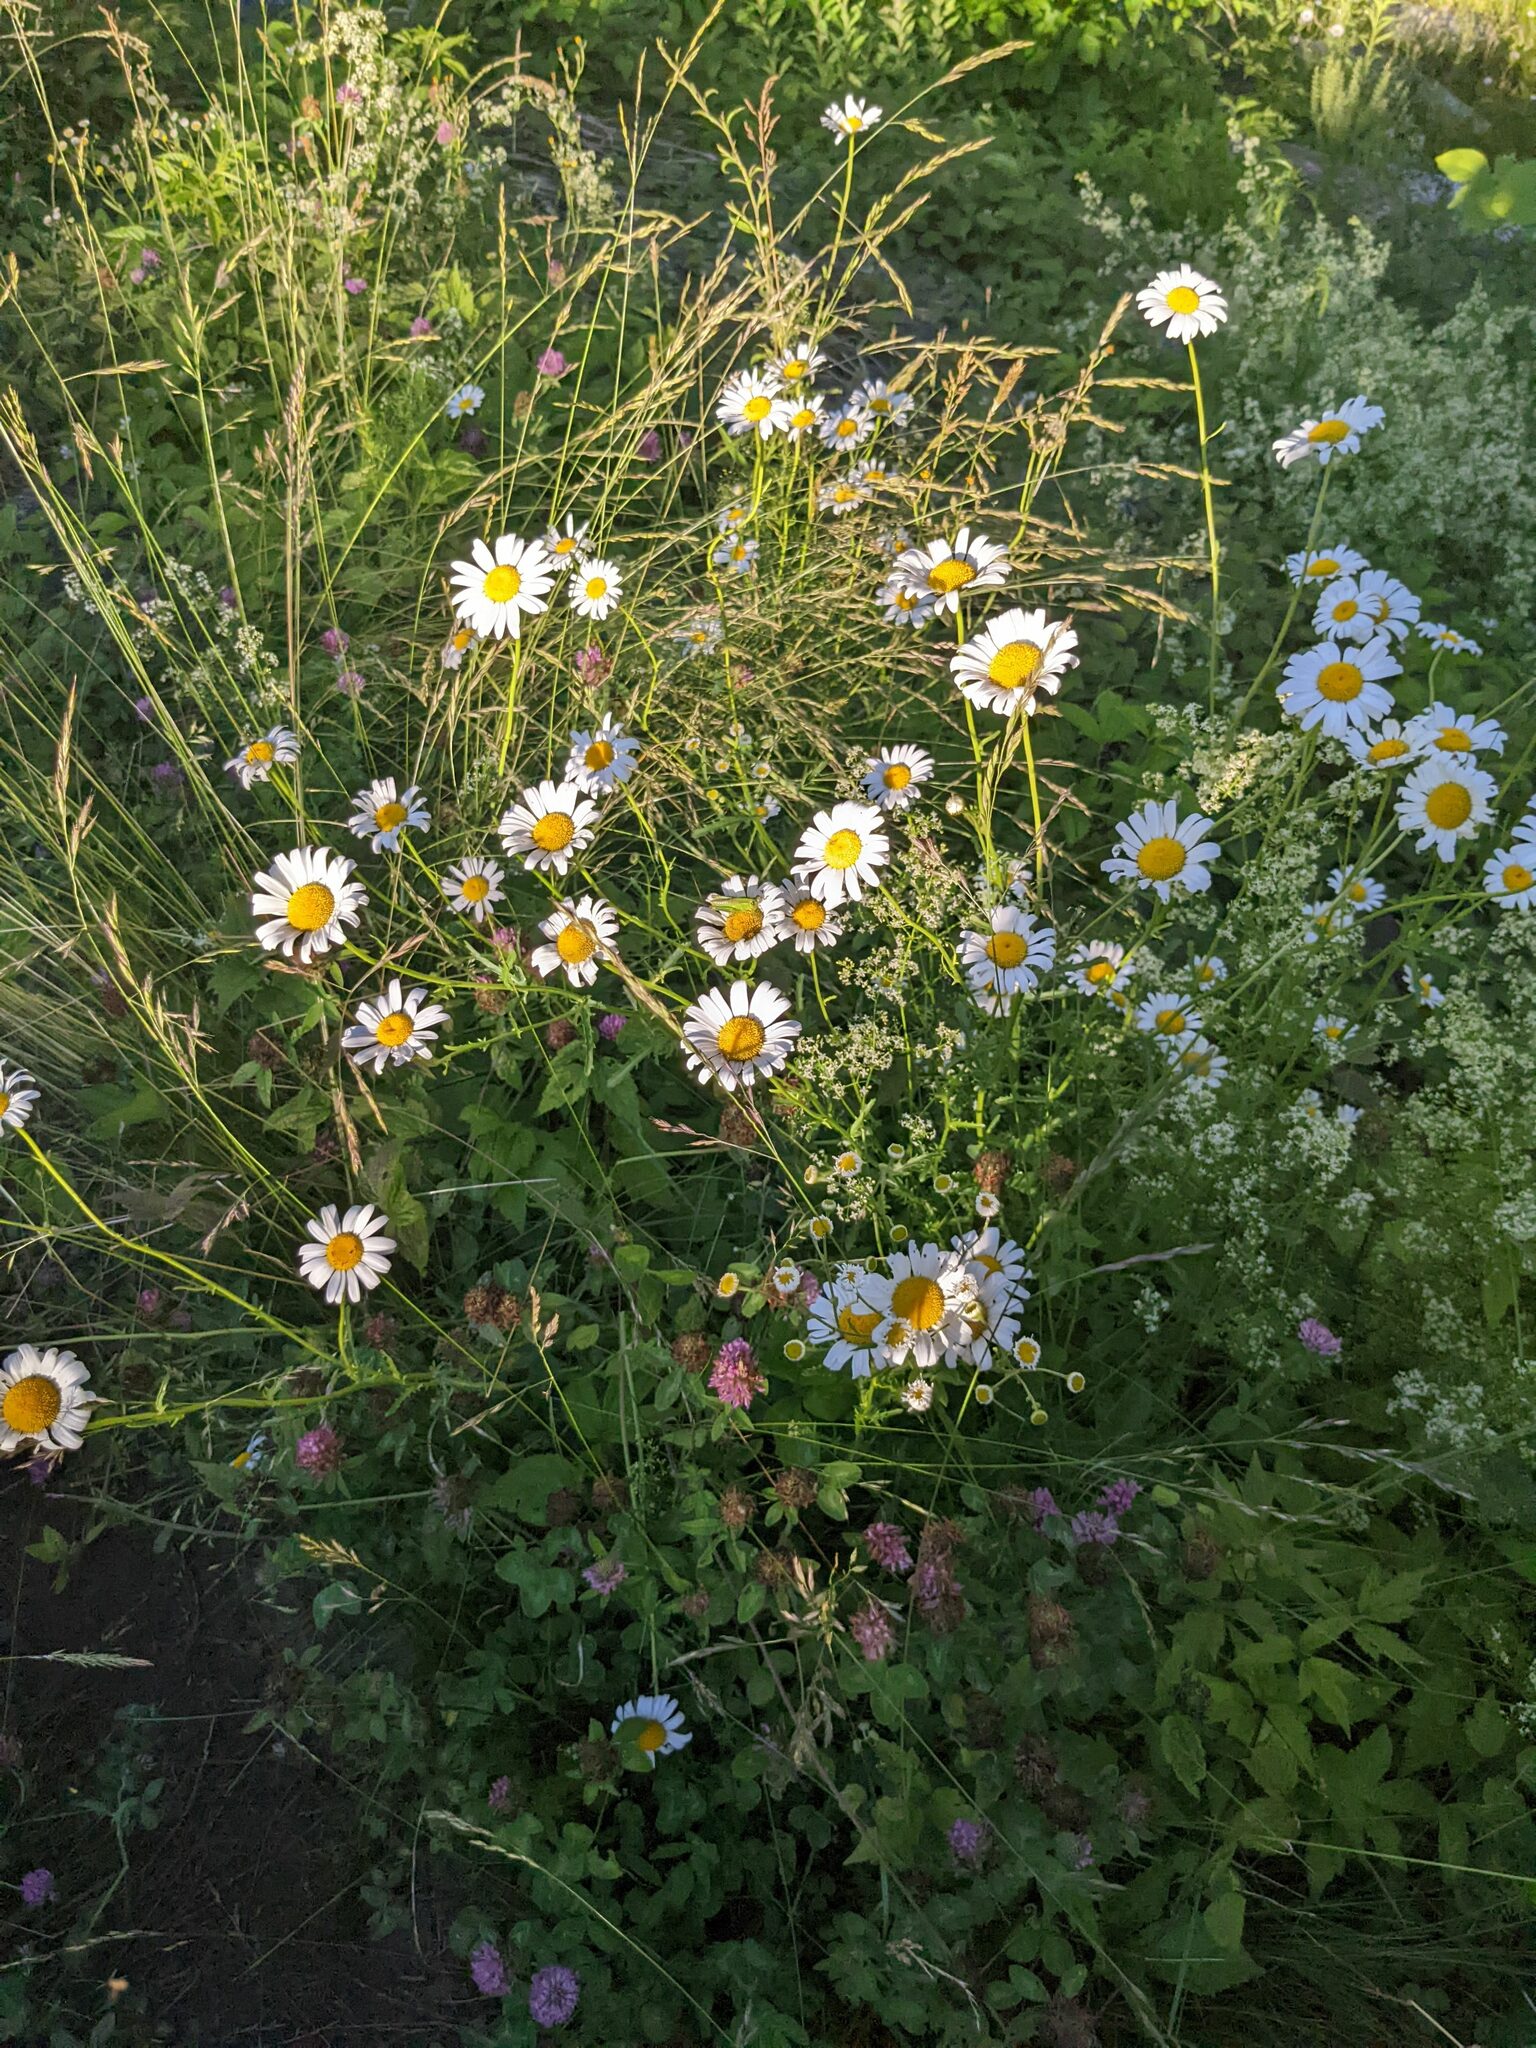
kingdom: Plantae
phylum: Tracheophyta
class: Magnoliopsida
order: Asterales
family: Asteraceae
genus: Leucanthemum
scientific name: Leucanthemum vulgare
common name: Oxeye daisy
